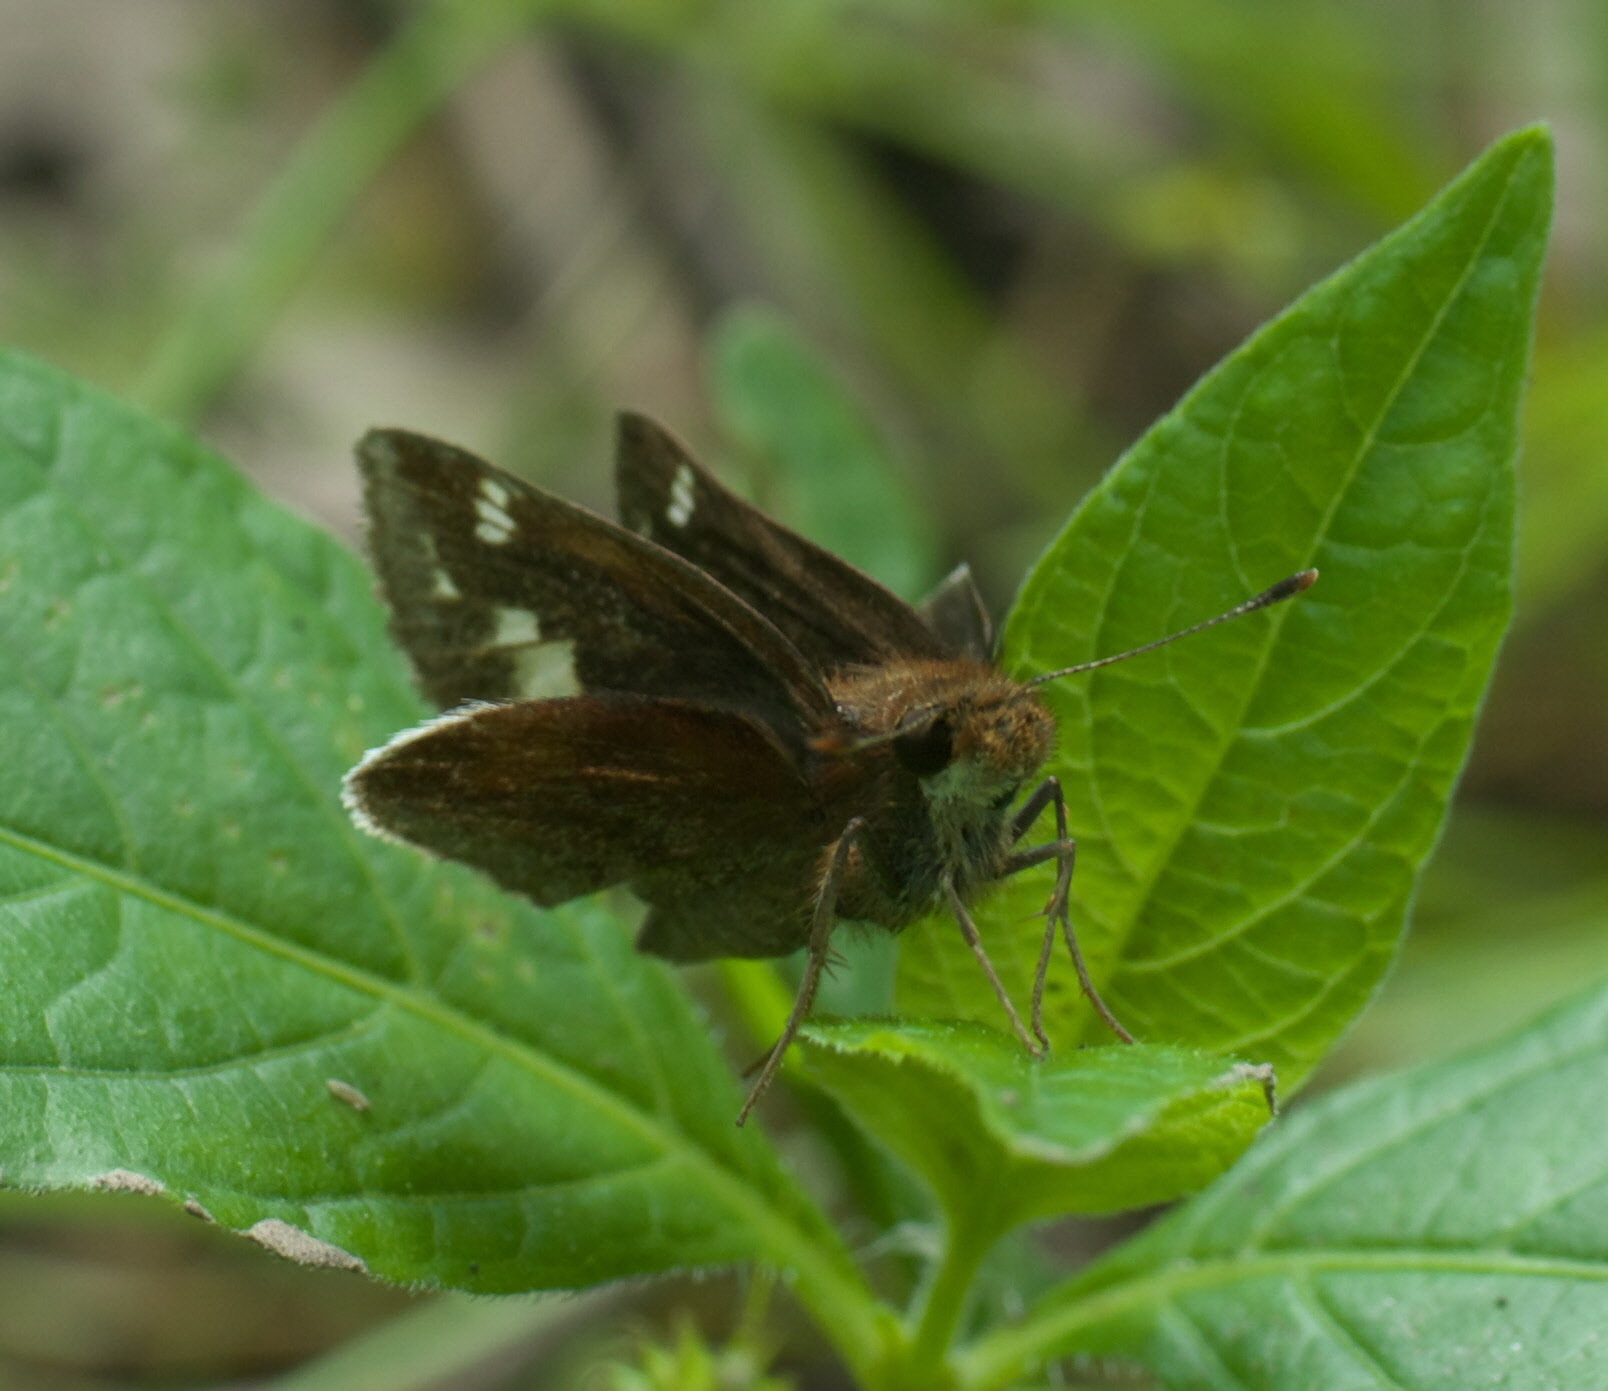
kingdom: Animalia
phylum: Arthropoda
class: Insecta
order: Lepidoptera
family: Hesperiidae
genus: Lon
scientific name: Lon zabulon
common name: Zabulon skipper
